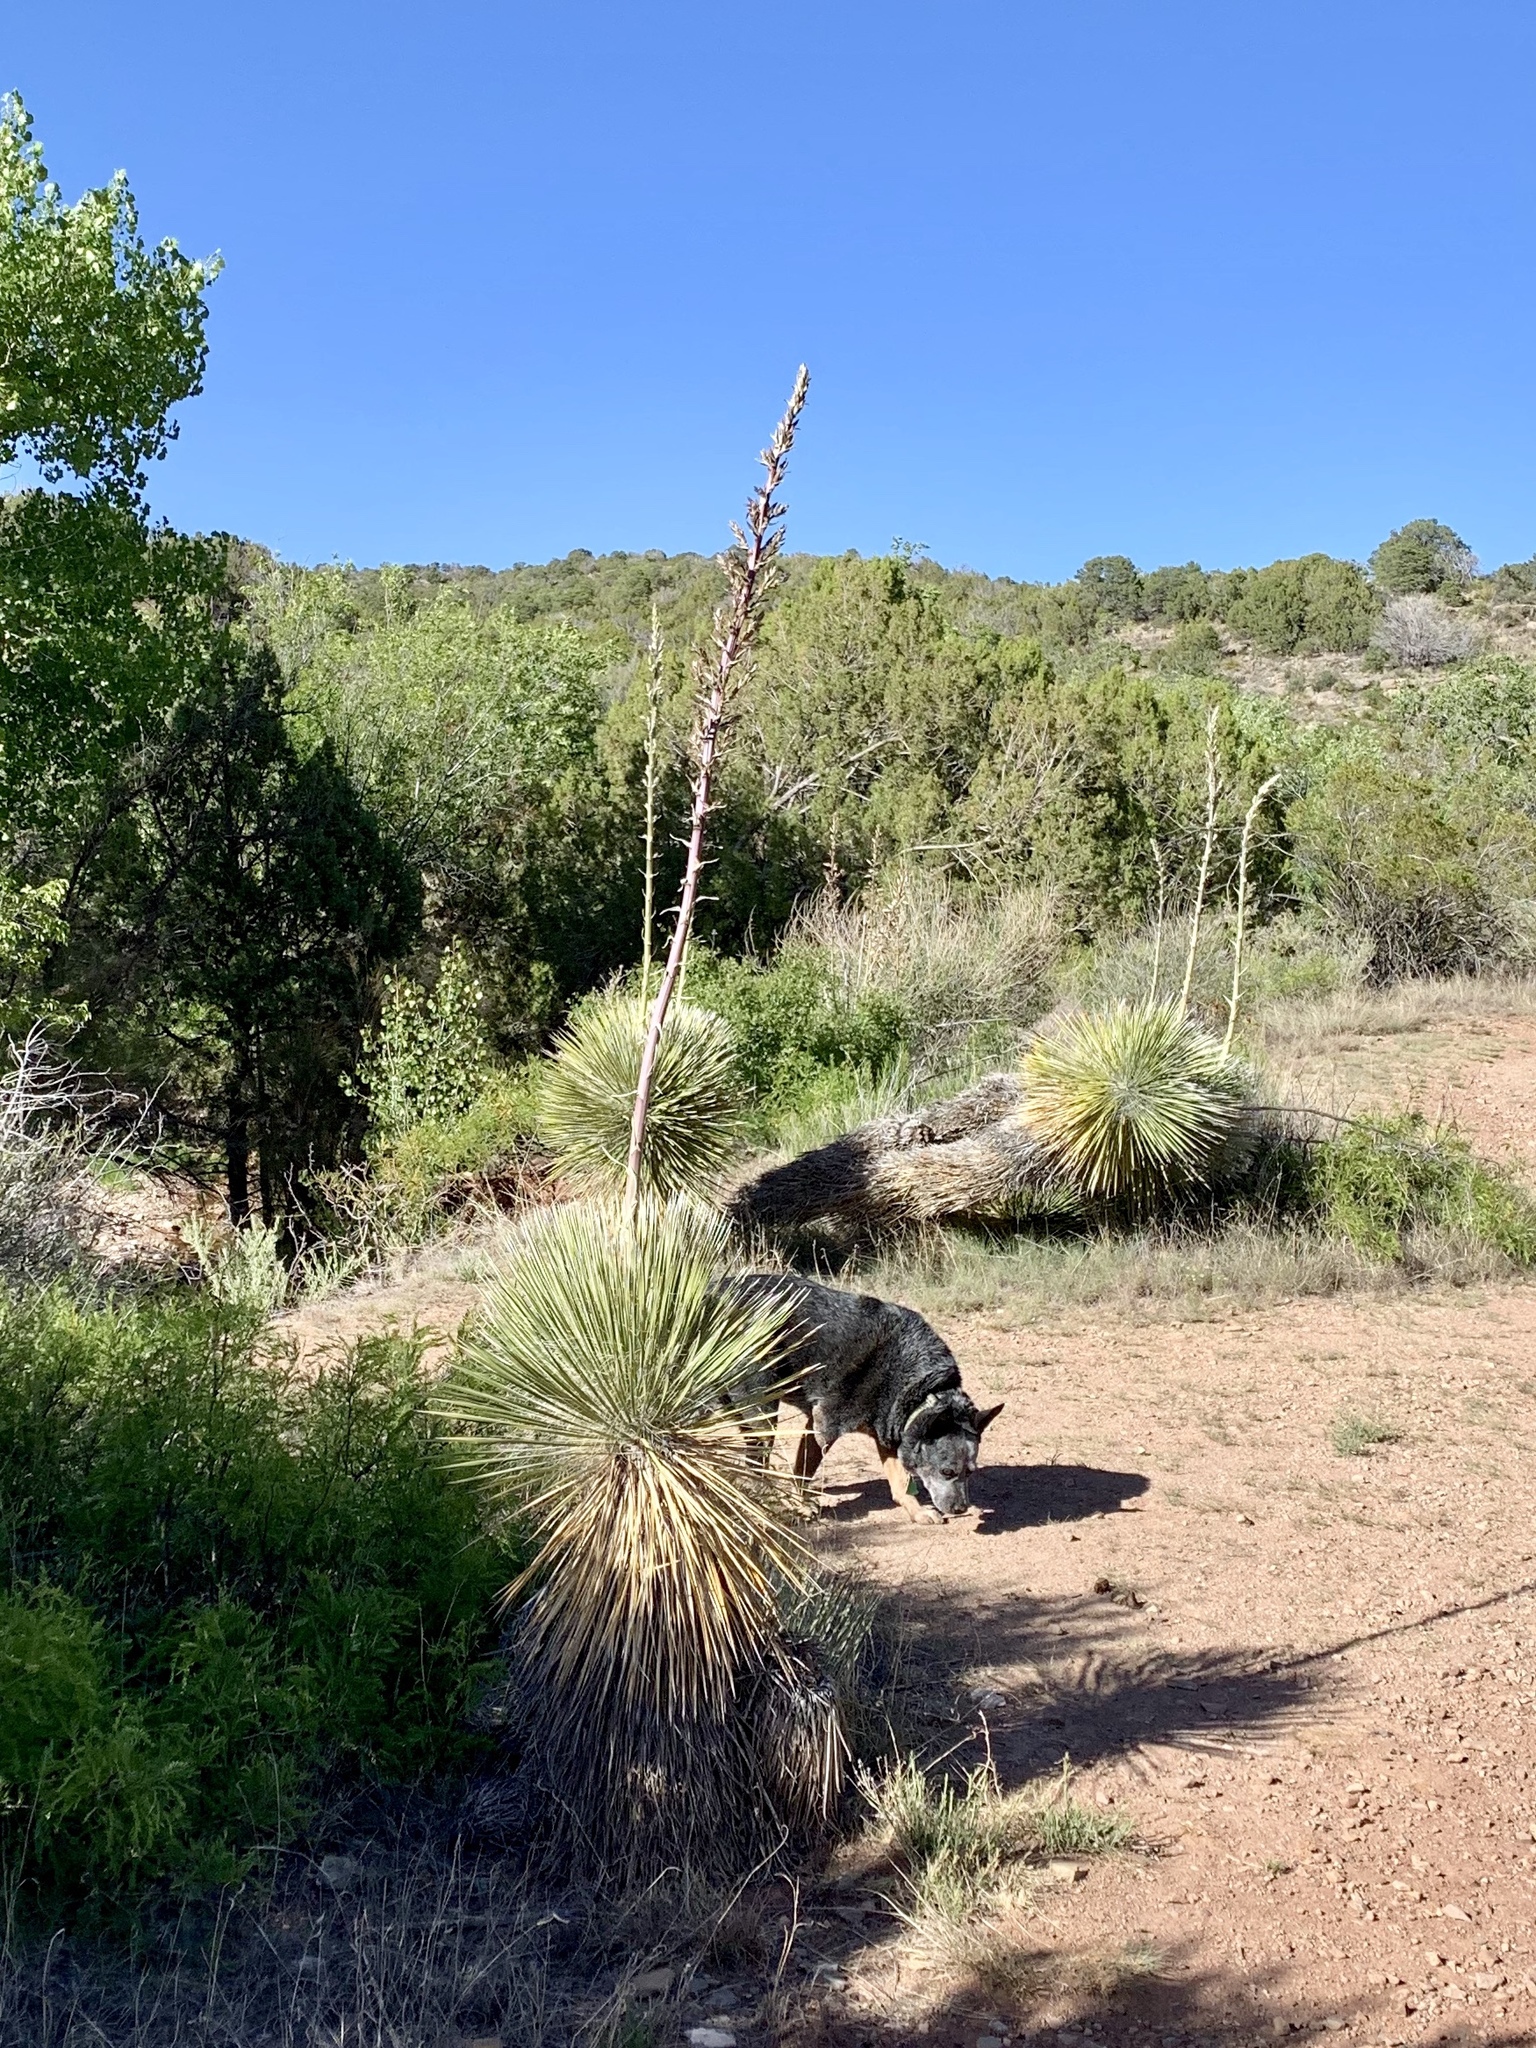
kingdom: Plantae
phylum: Tracheophyta
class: Liliopsida
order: Asparagales
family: Asparagaceae
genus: Yucca
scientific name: Yucca elata
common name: Palmella
